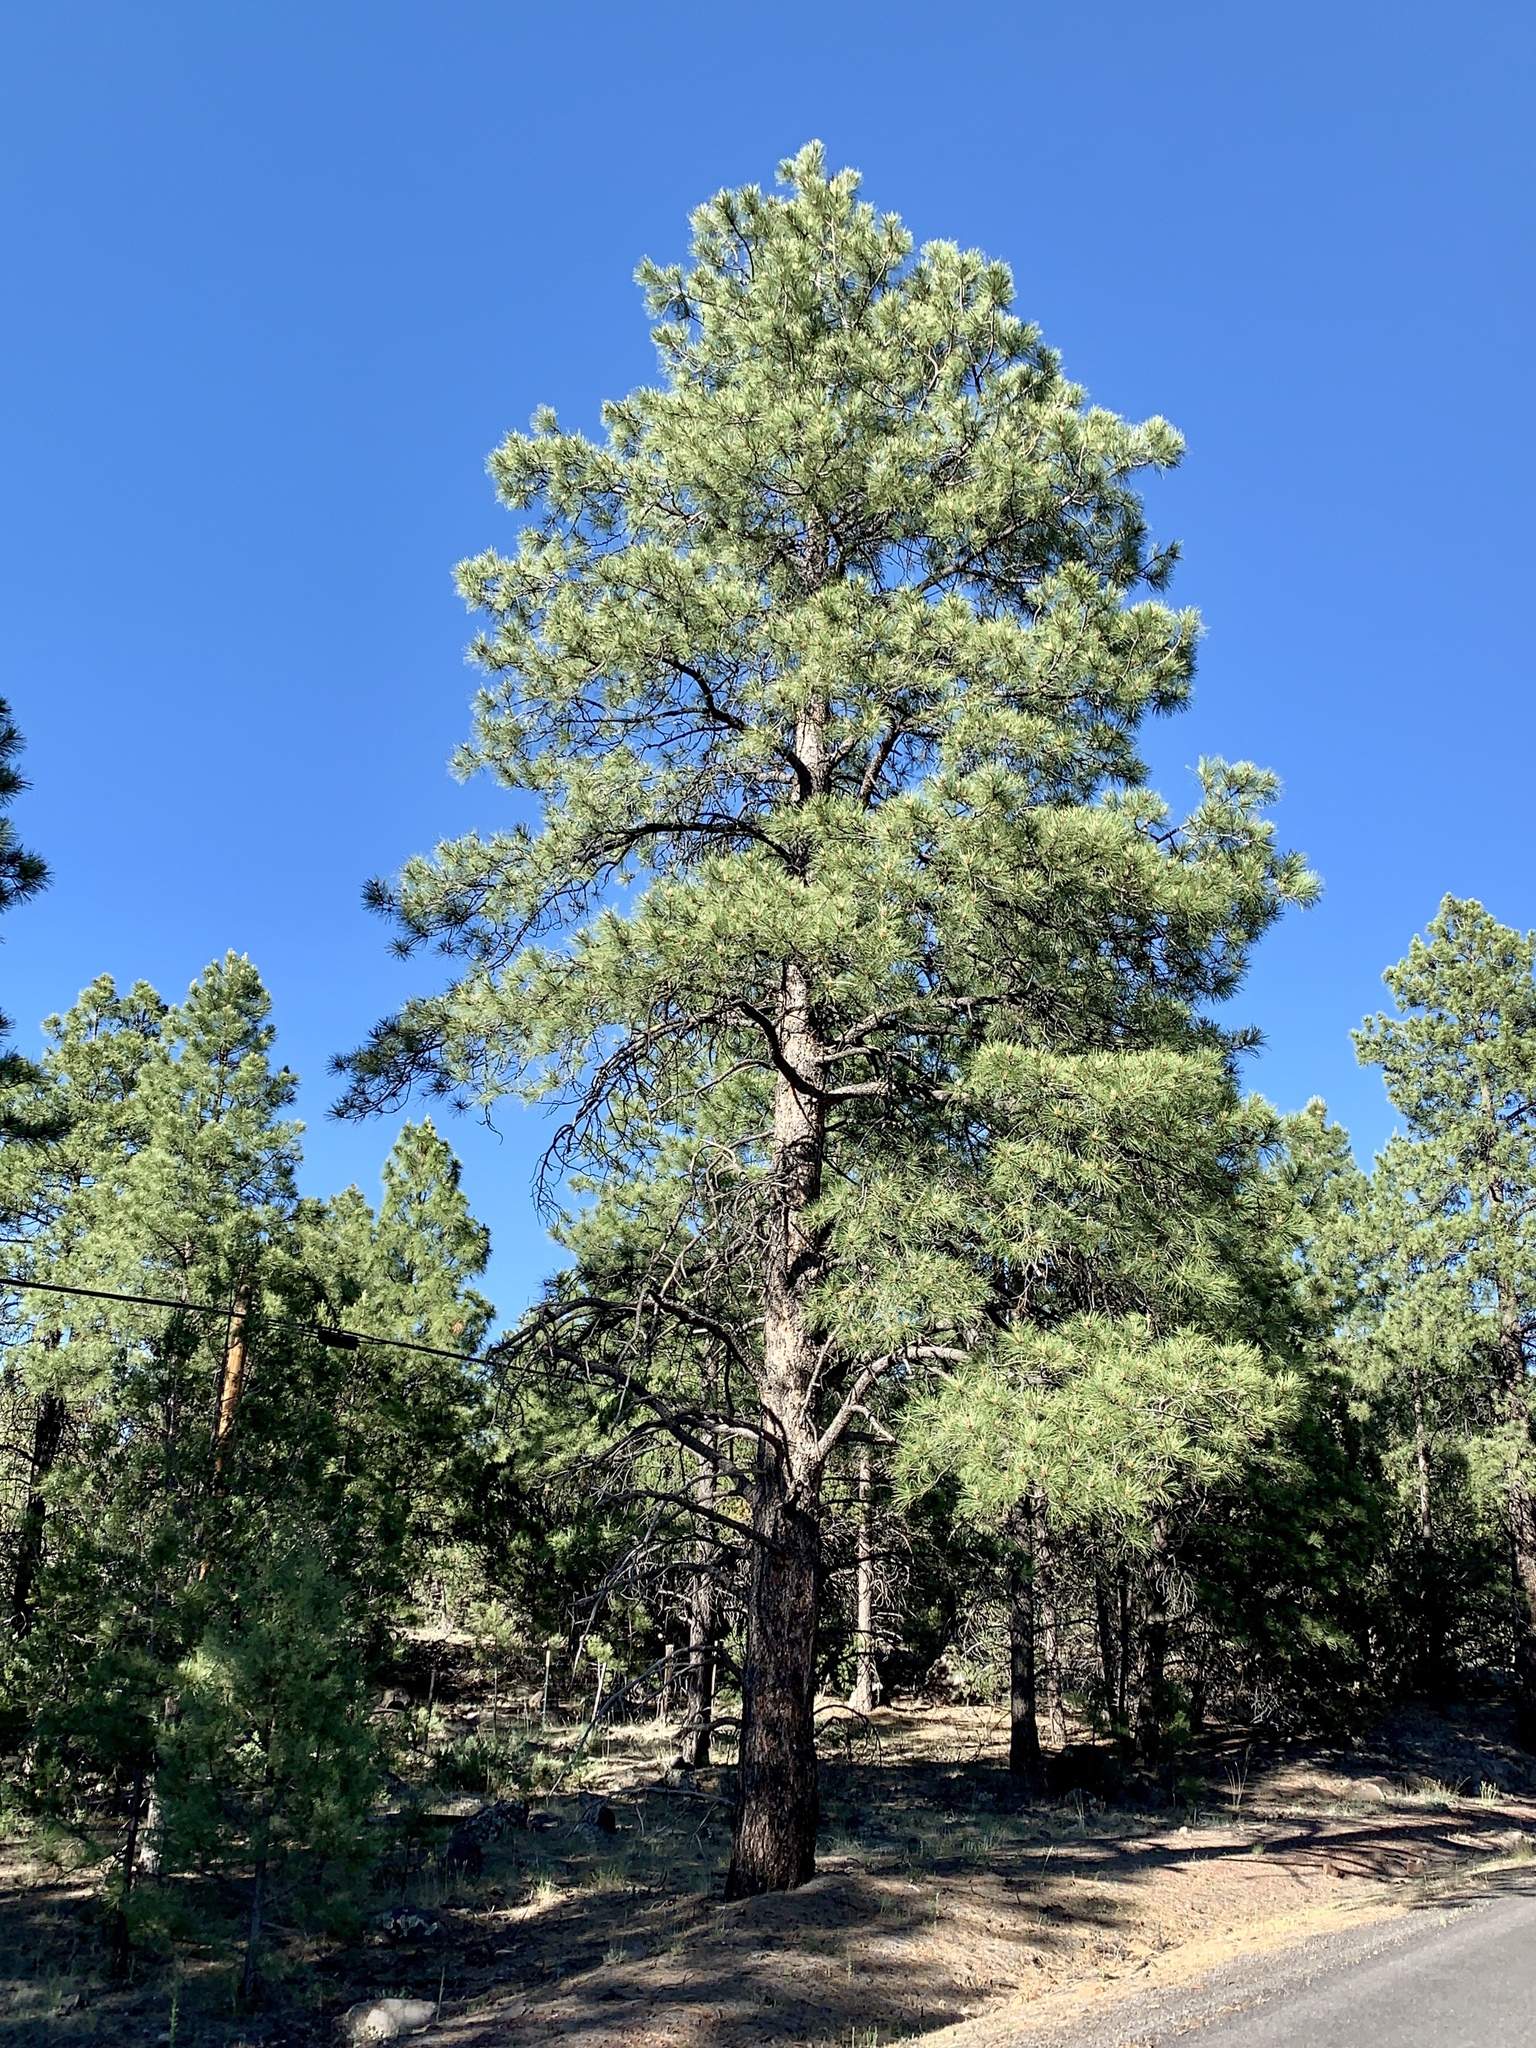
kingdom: Plantae
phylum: Tracheophyta
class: Pinopsida
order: Pinales
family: Pinaceae
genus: Pinus
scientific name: Pinus ponderosa
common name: Western yellow-pine
